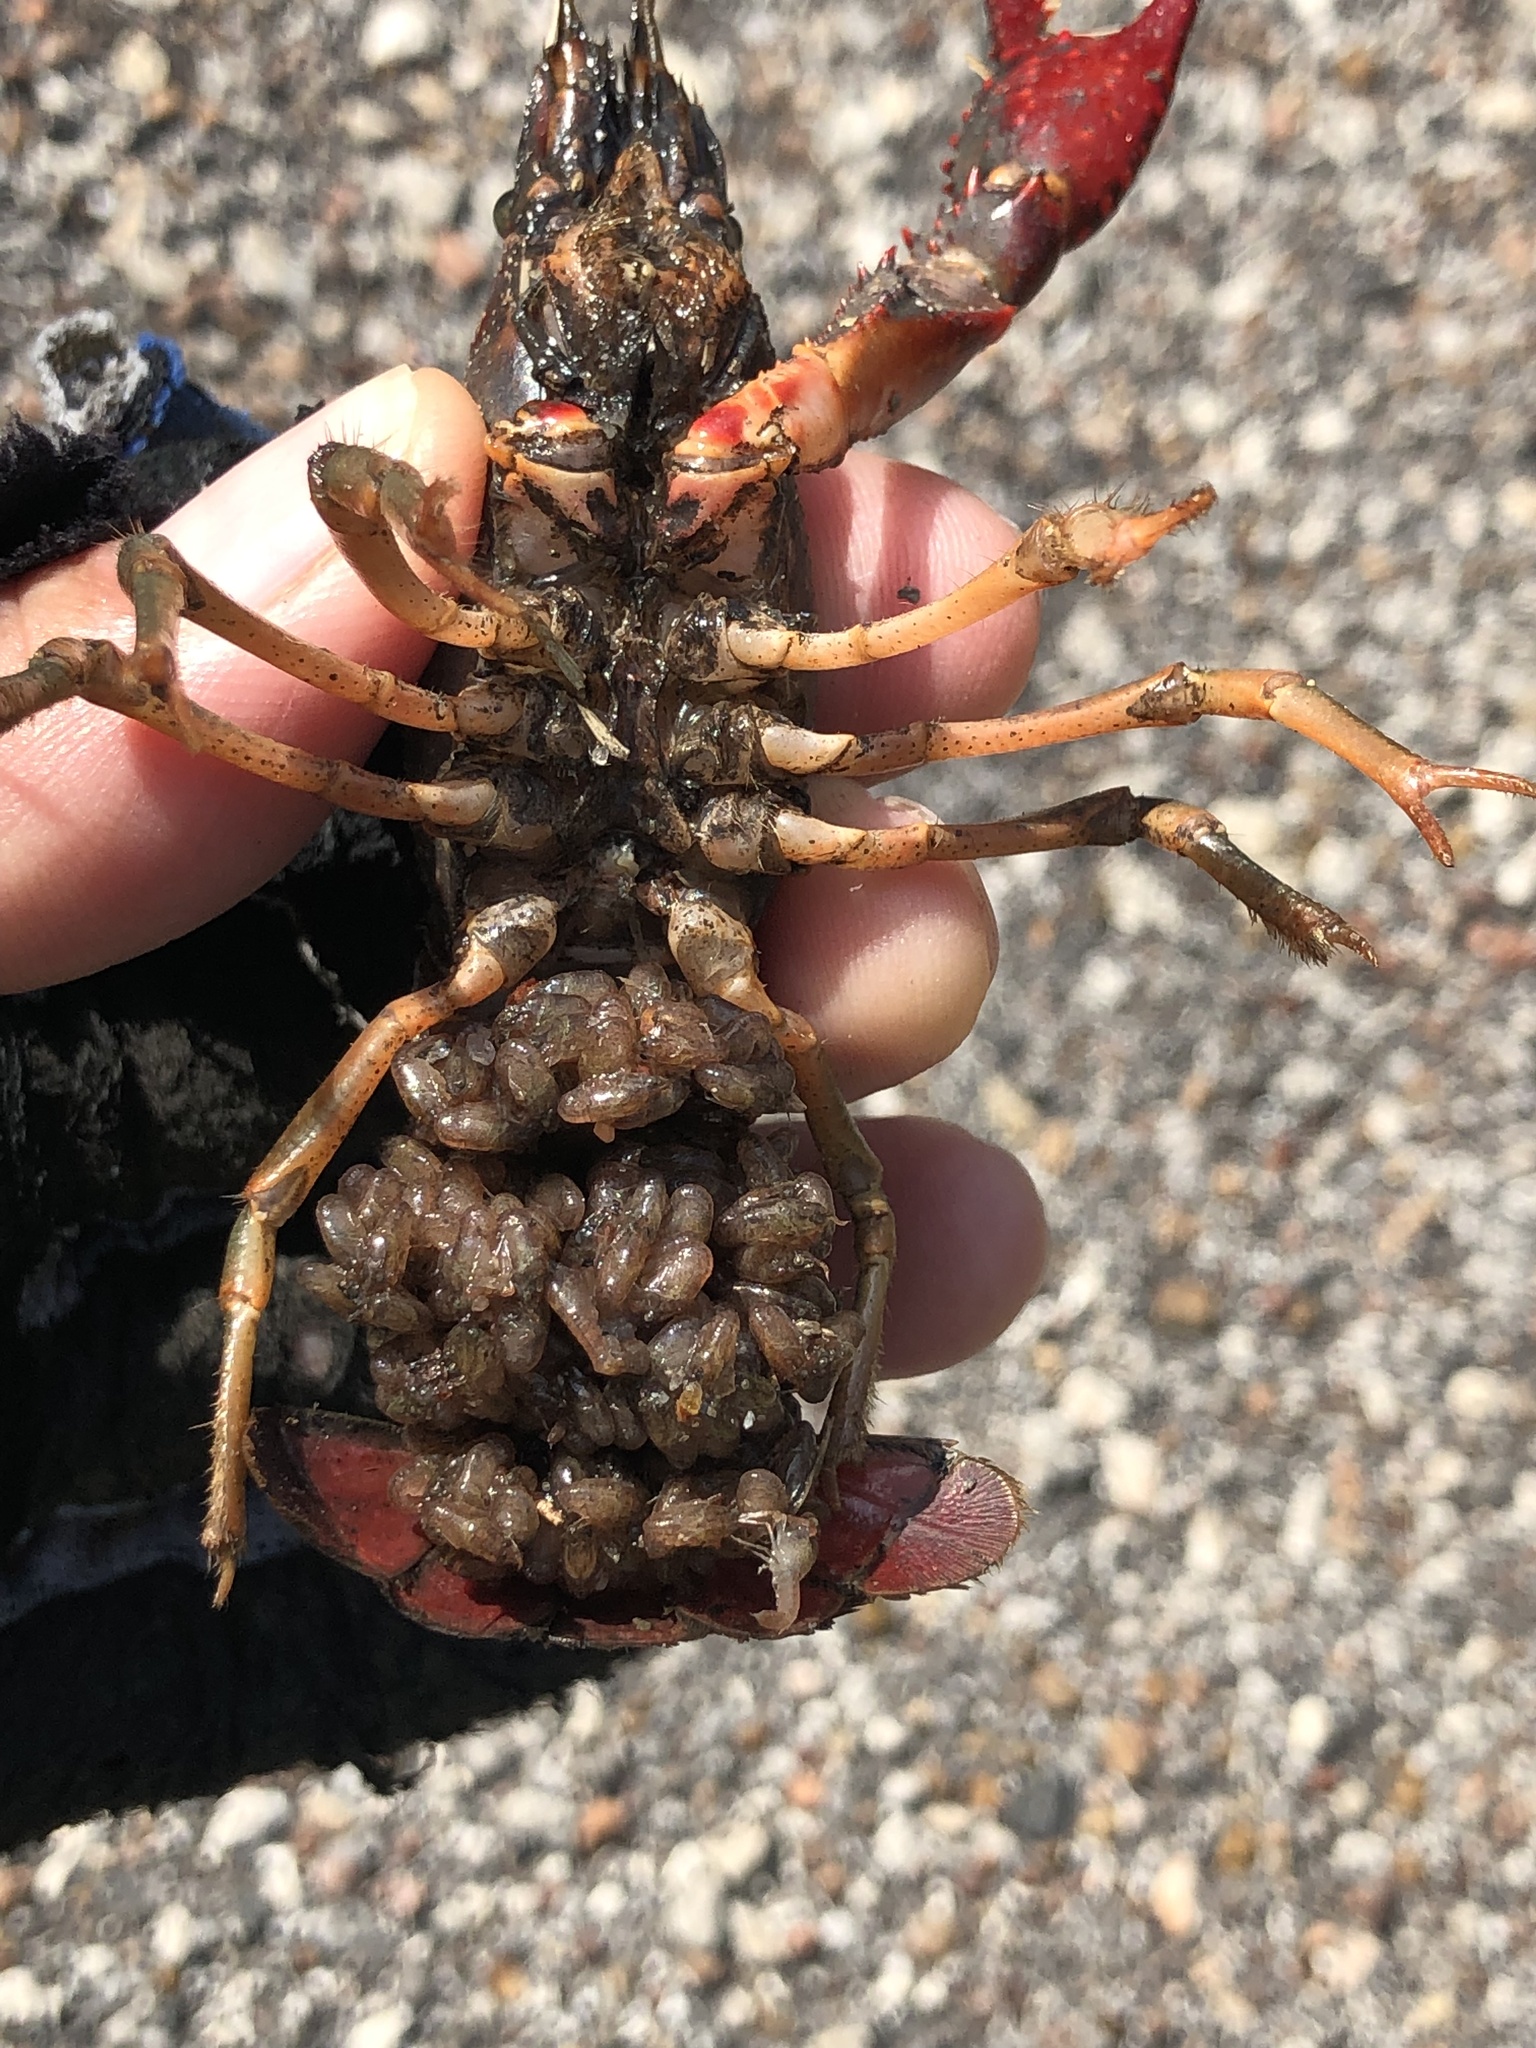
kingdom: Animalia
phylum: Arthropoda
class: Malacostraca
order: Decapoda
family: Cambaridae
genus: Procambarus
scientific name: Procambarus clarkii
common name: Red swamp crayfish
